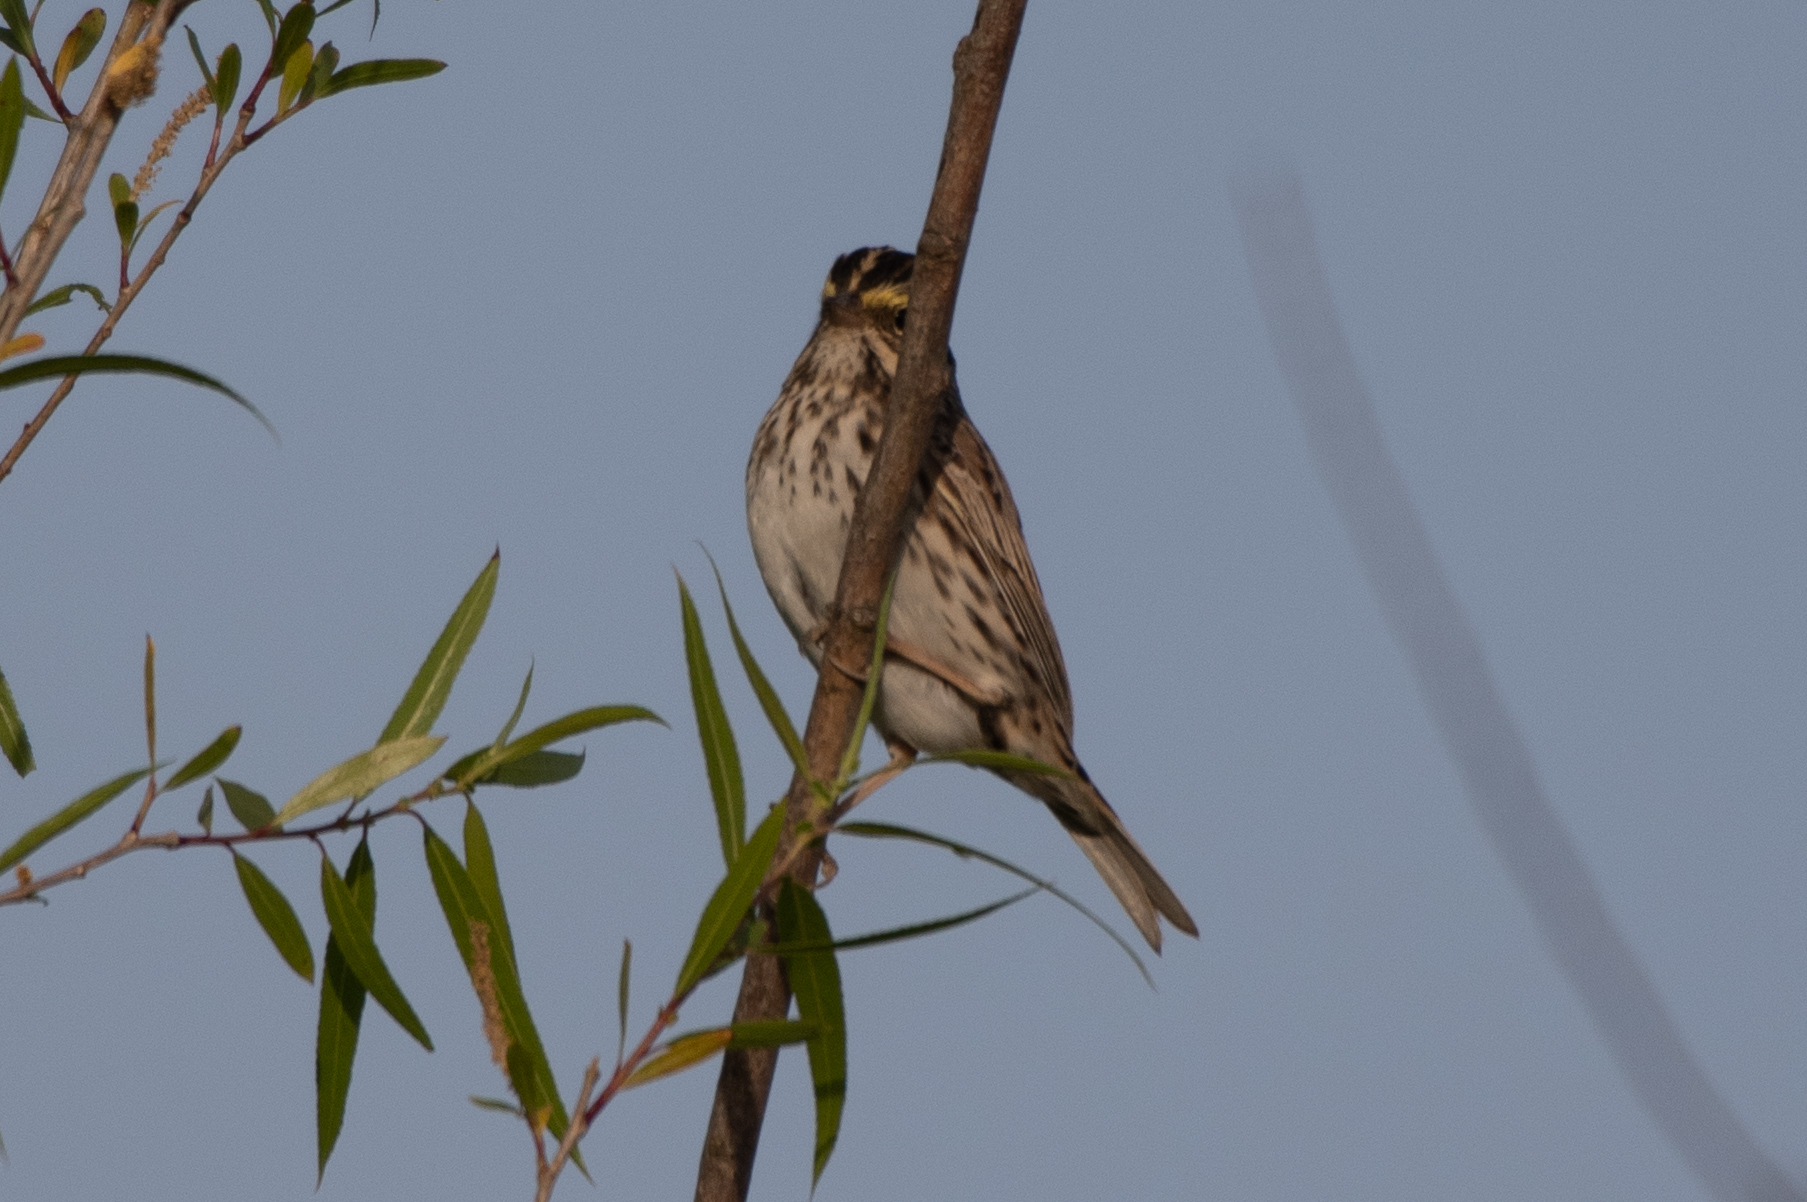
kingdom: Animalia
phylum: Chordata
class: Aves
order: Passeriformes
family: Passerellidae
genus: Passerculus
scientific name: Passerculus sandwichensis
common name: Savannah sparrow
